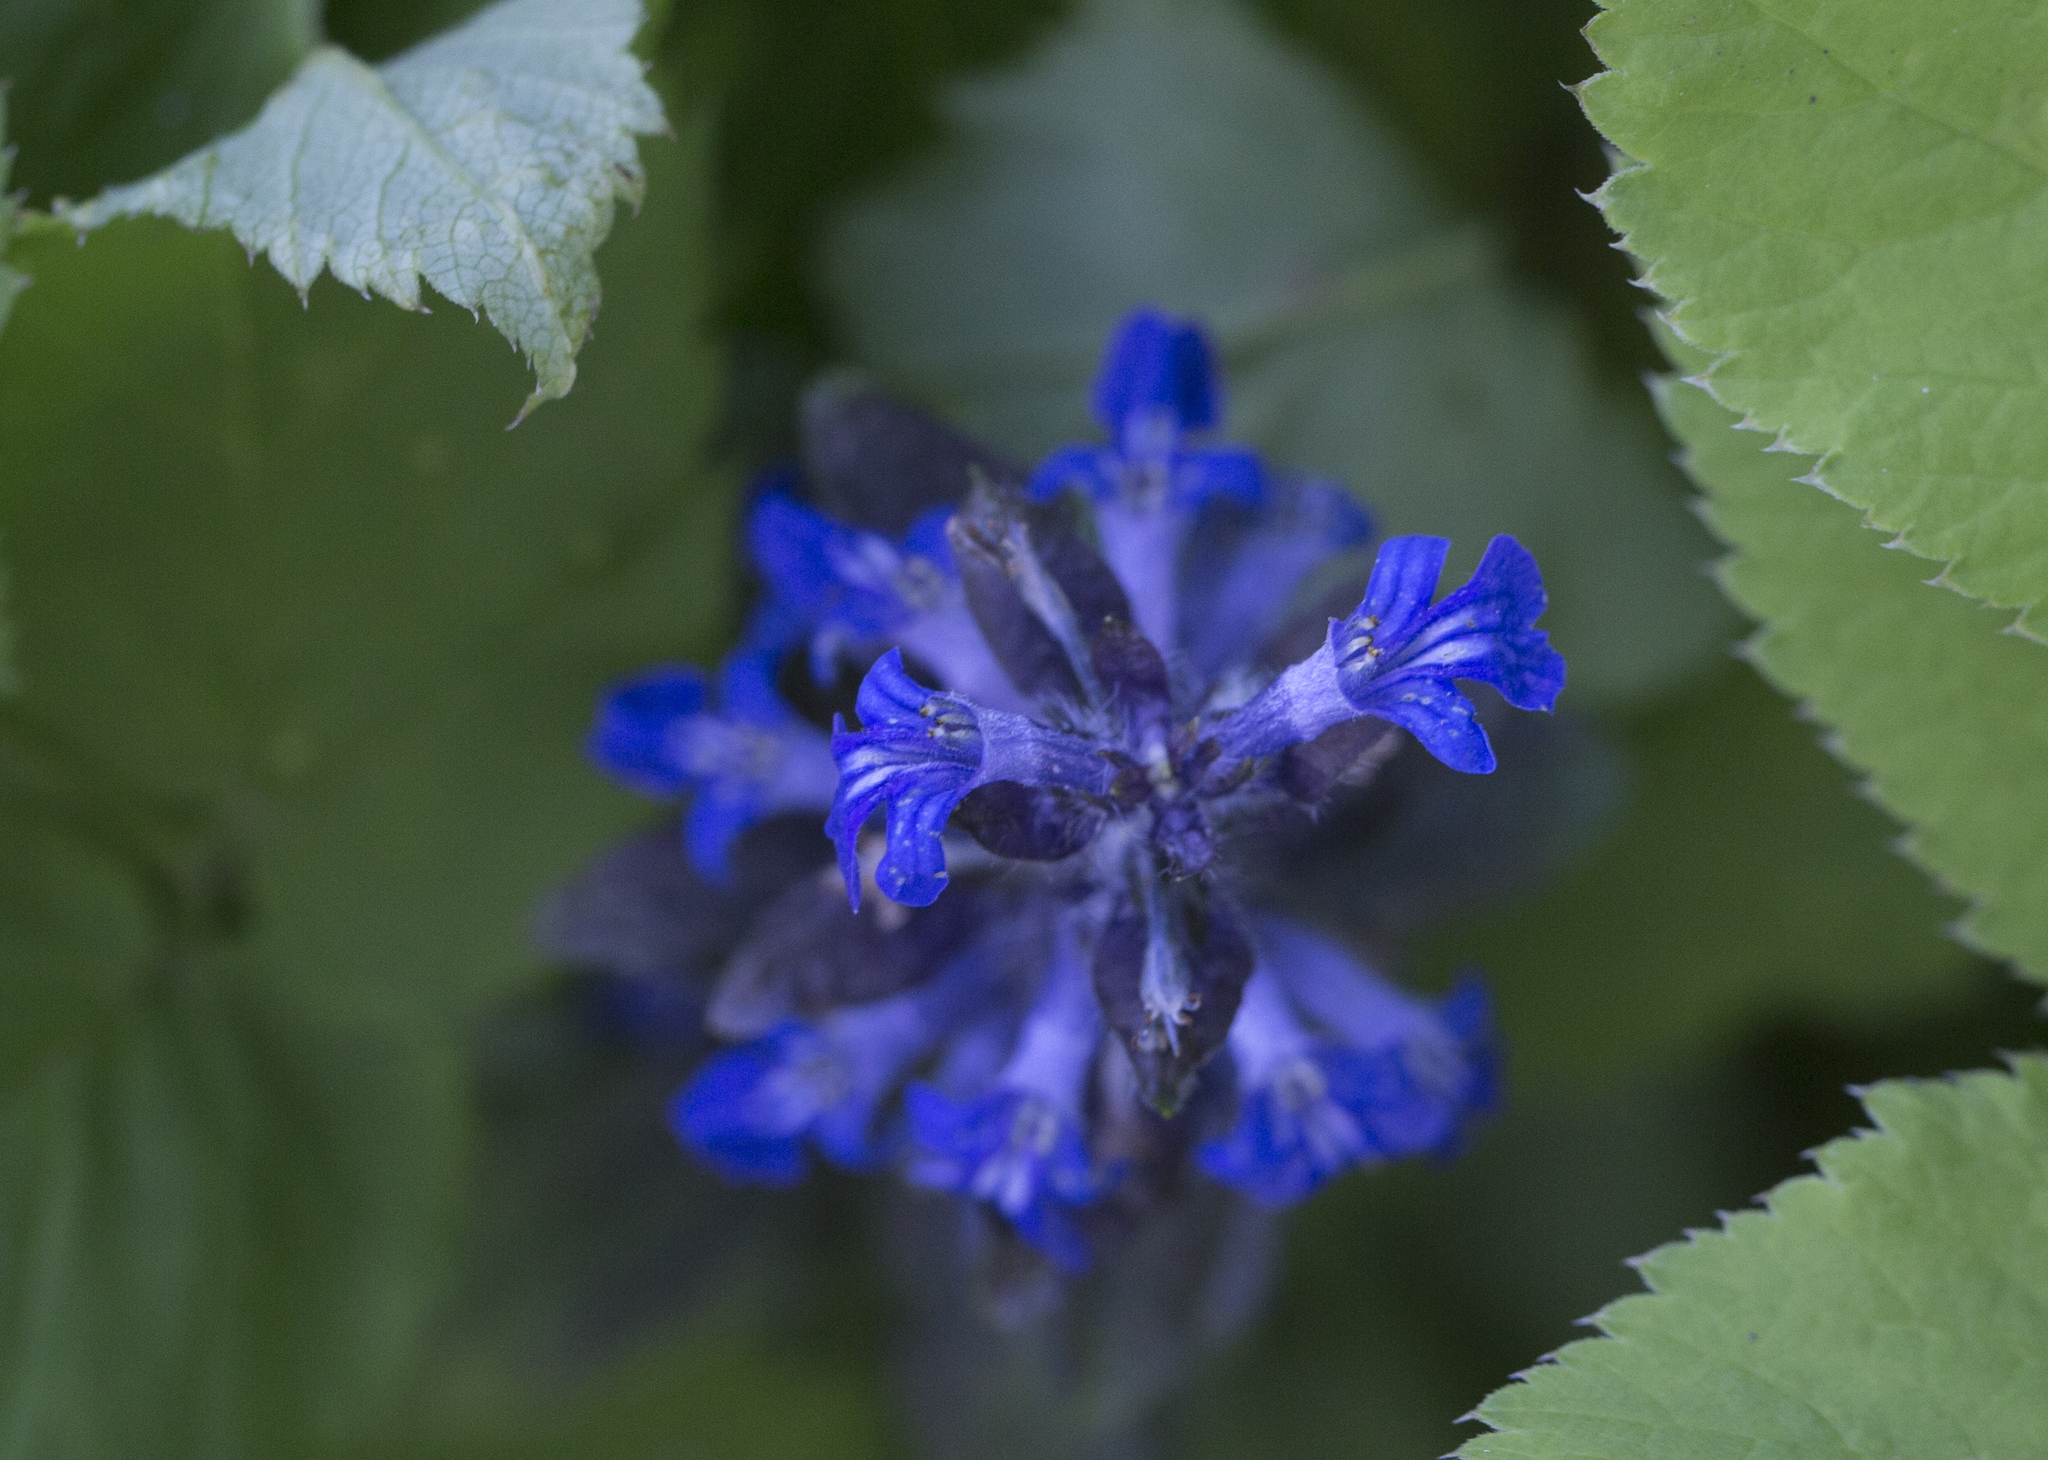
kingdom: Plantae
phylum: Tracheophyta
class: Magnoliopsida
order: Lamiales
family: Lamiaceae
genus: Ajuga
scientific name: Ajuga reptans
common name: Bugle
